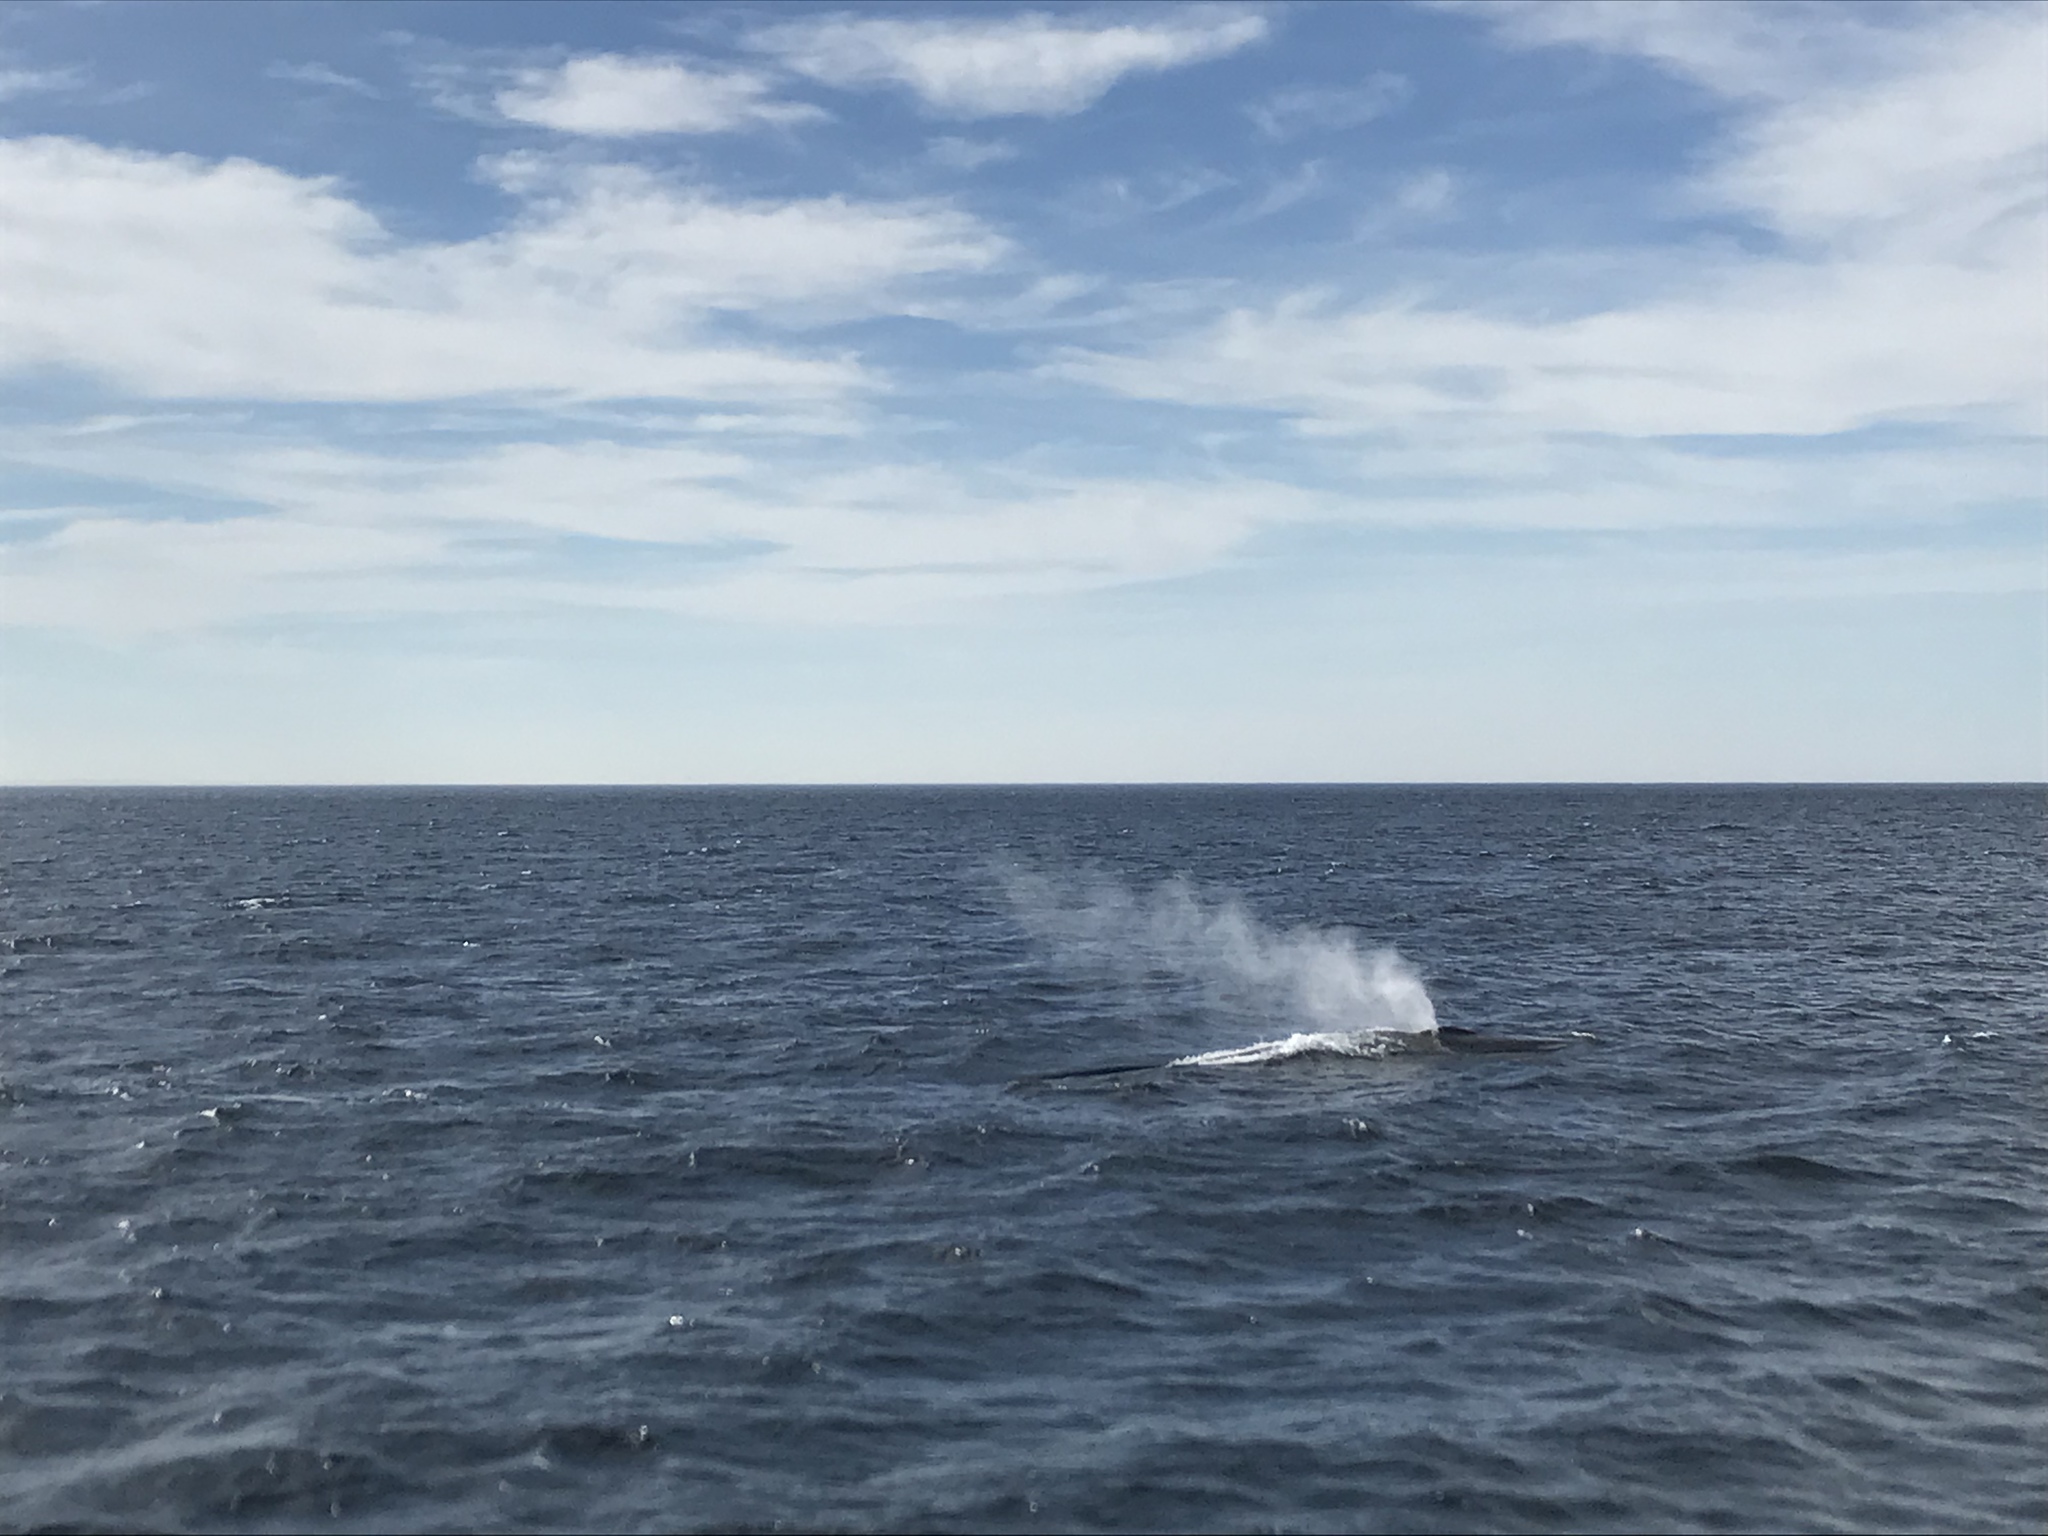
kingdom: Animalia
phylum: Chordata
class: Mammalia
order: Cetacea
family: Balaenopteridae
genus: Balaenoptera
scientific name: Balaenoptera physalus
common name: Fin whale
